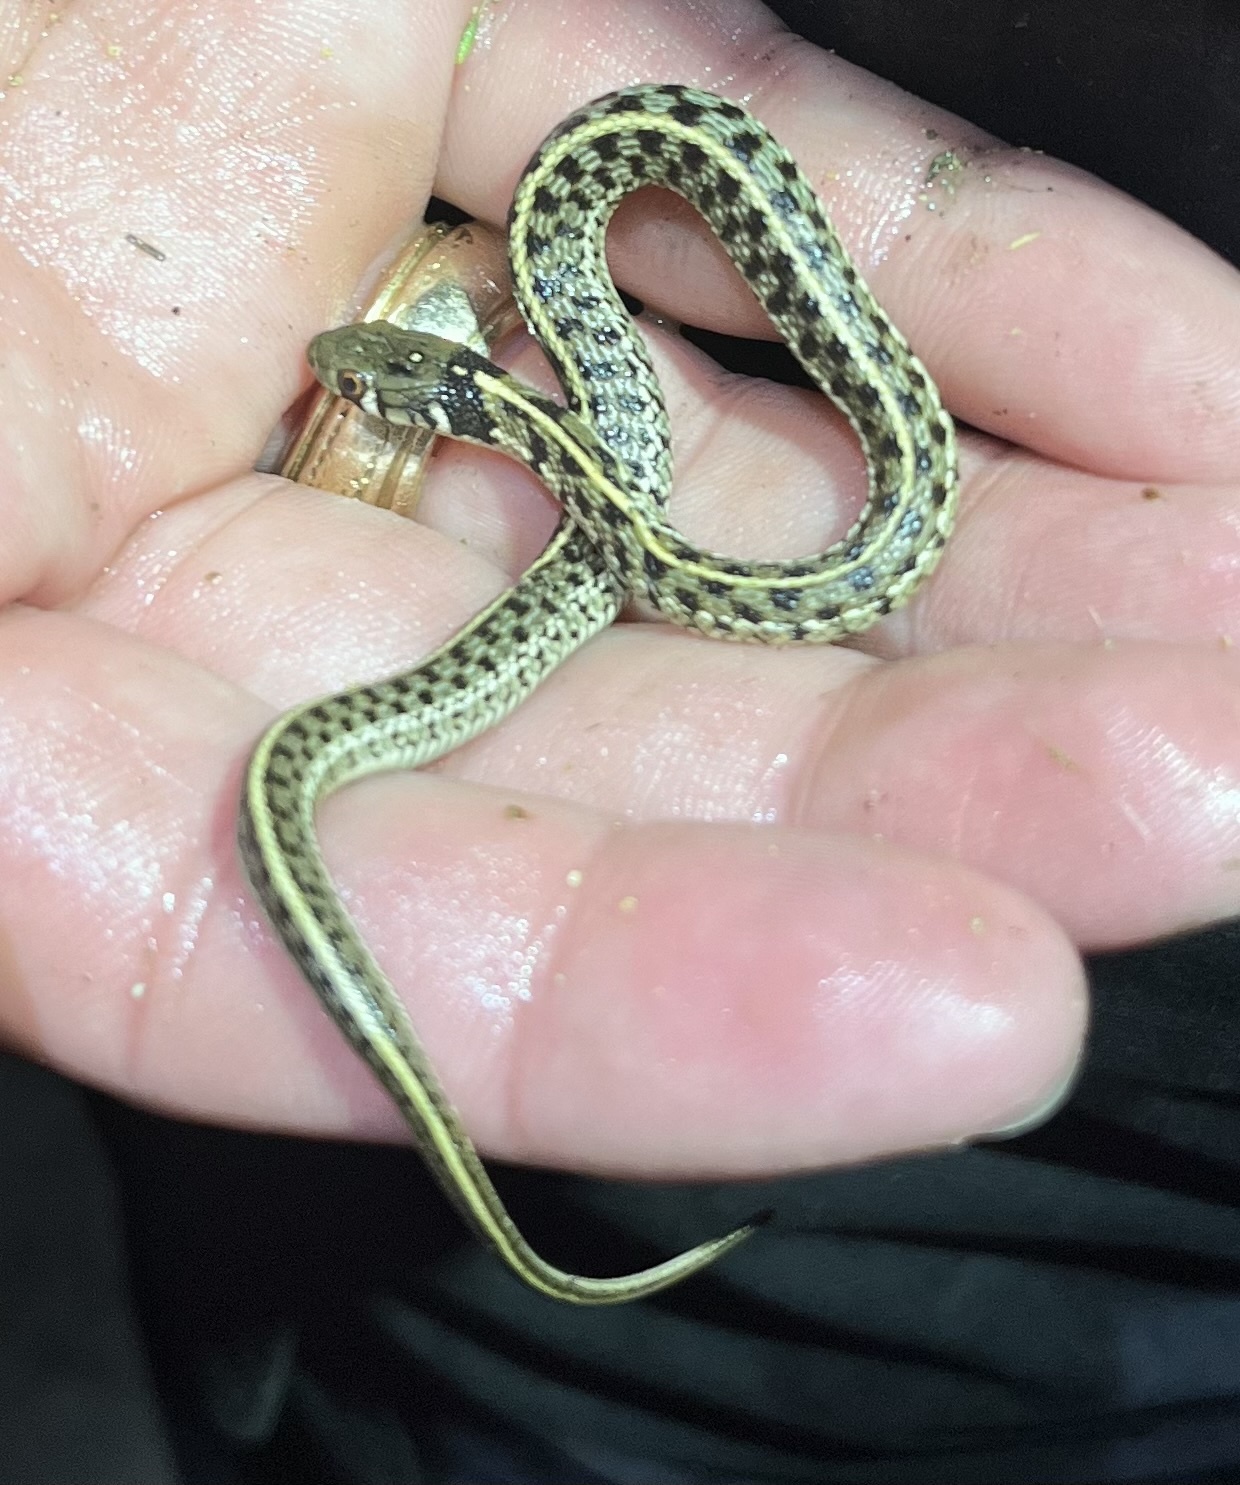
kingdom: Animalia
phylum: Chordata
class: Squamata
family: Colubridae
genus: Thamnophis
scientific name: Thamnophis marcianus
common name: Checkered garter snake
